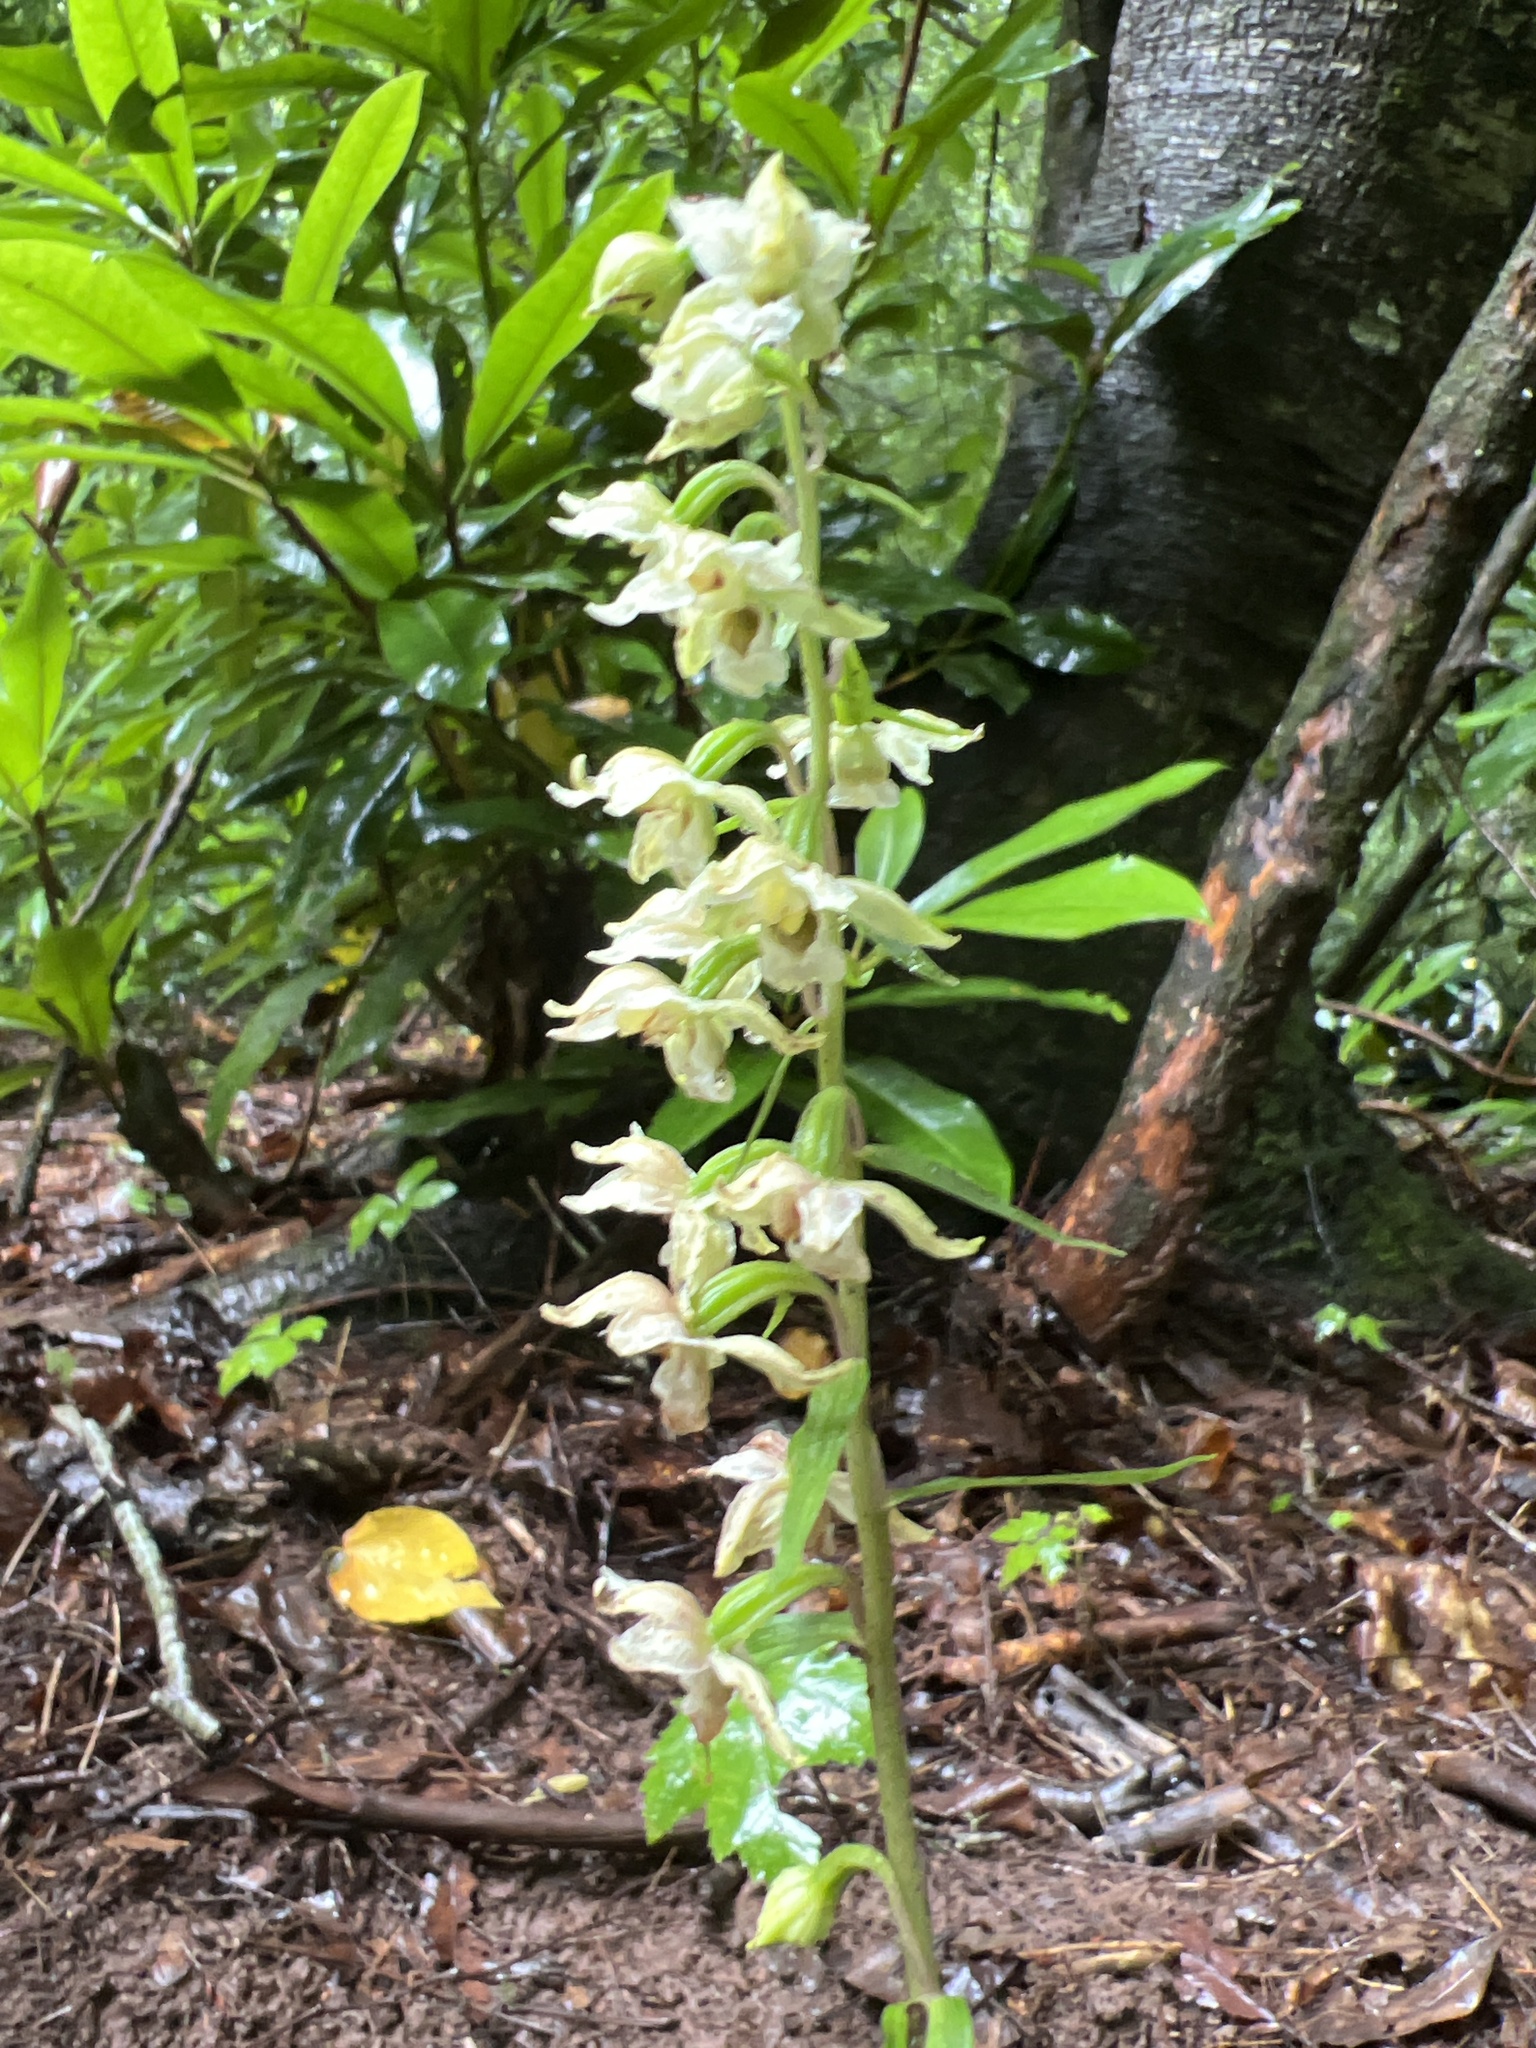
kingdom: Plantae
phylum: Tracheophyta
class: Liliopsida
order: Asparagales
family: Orchidaceae
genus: Epipactis
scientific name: Epipactis helleborine
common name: Broad-leaved helleborine
